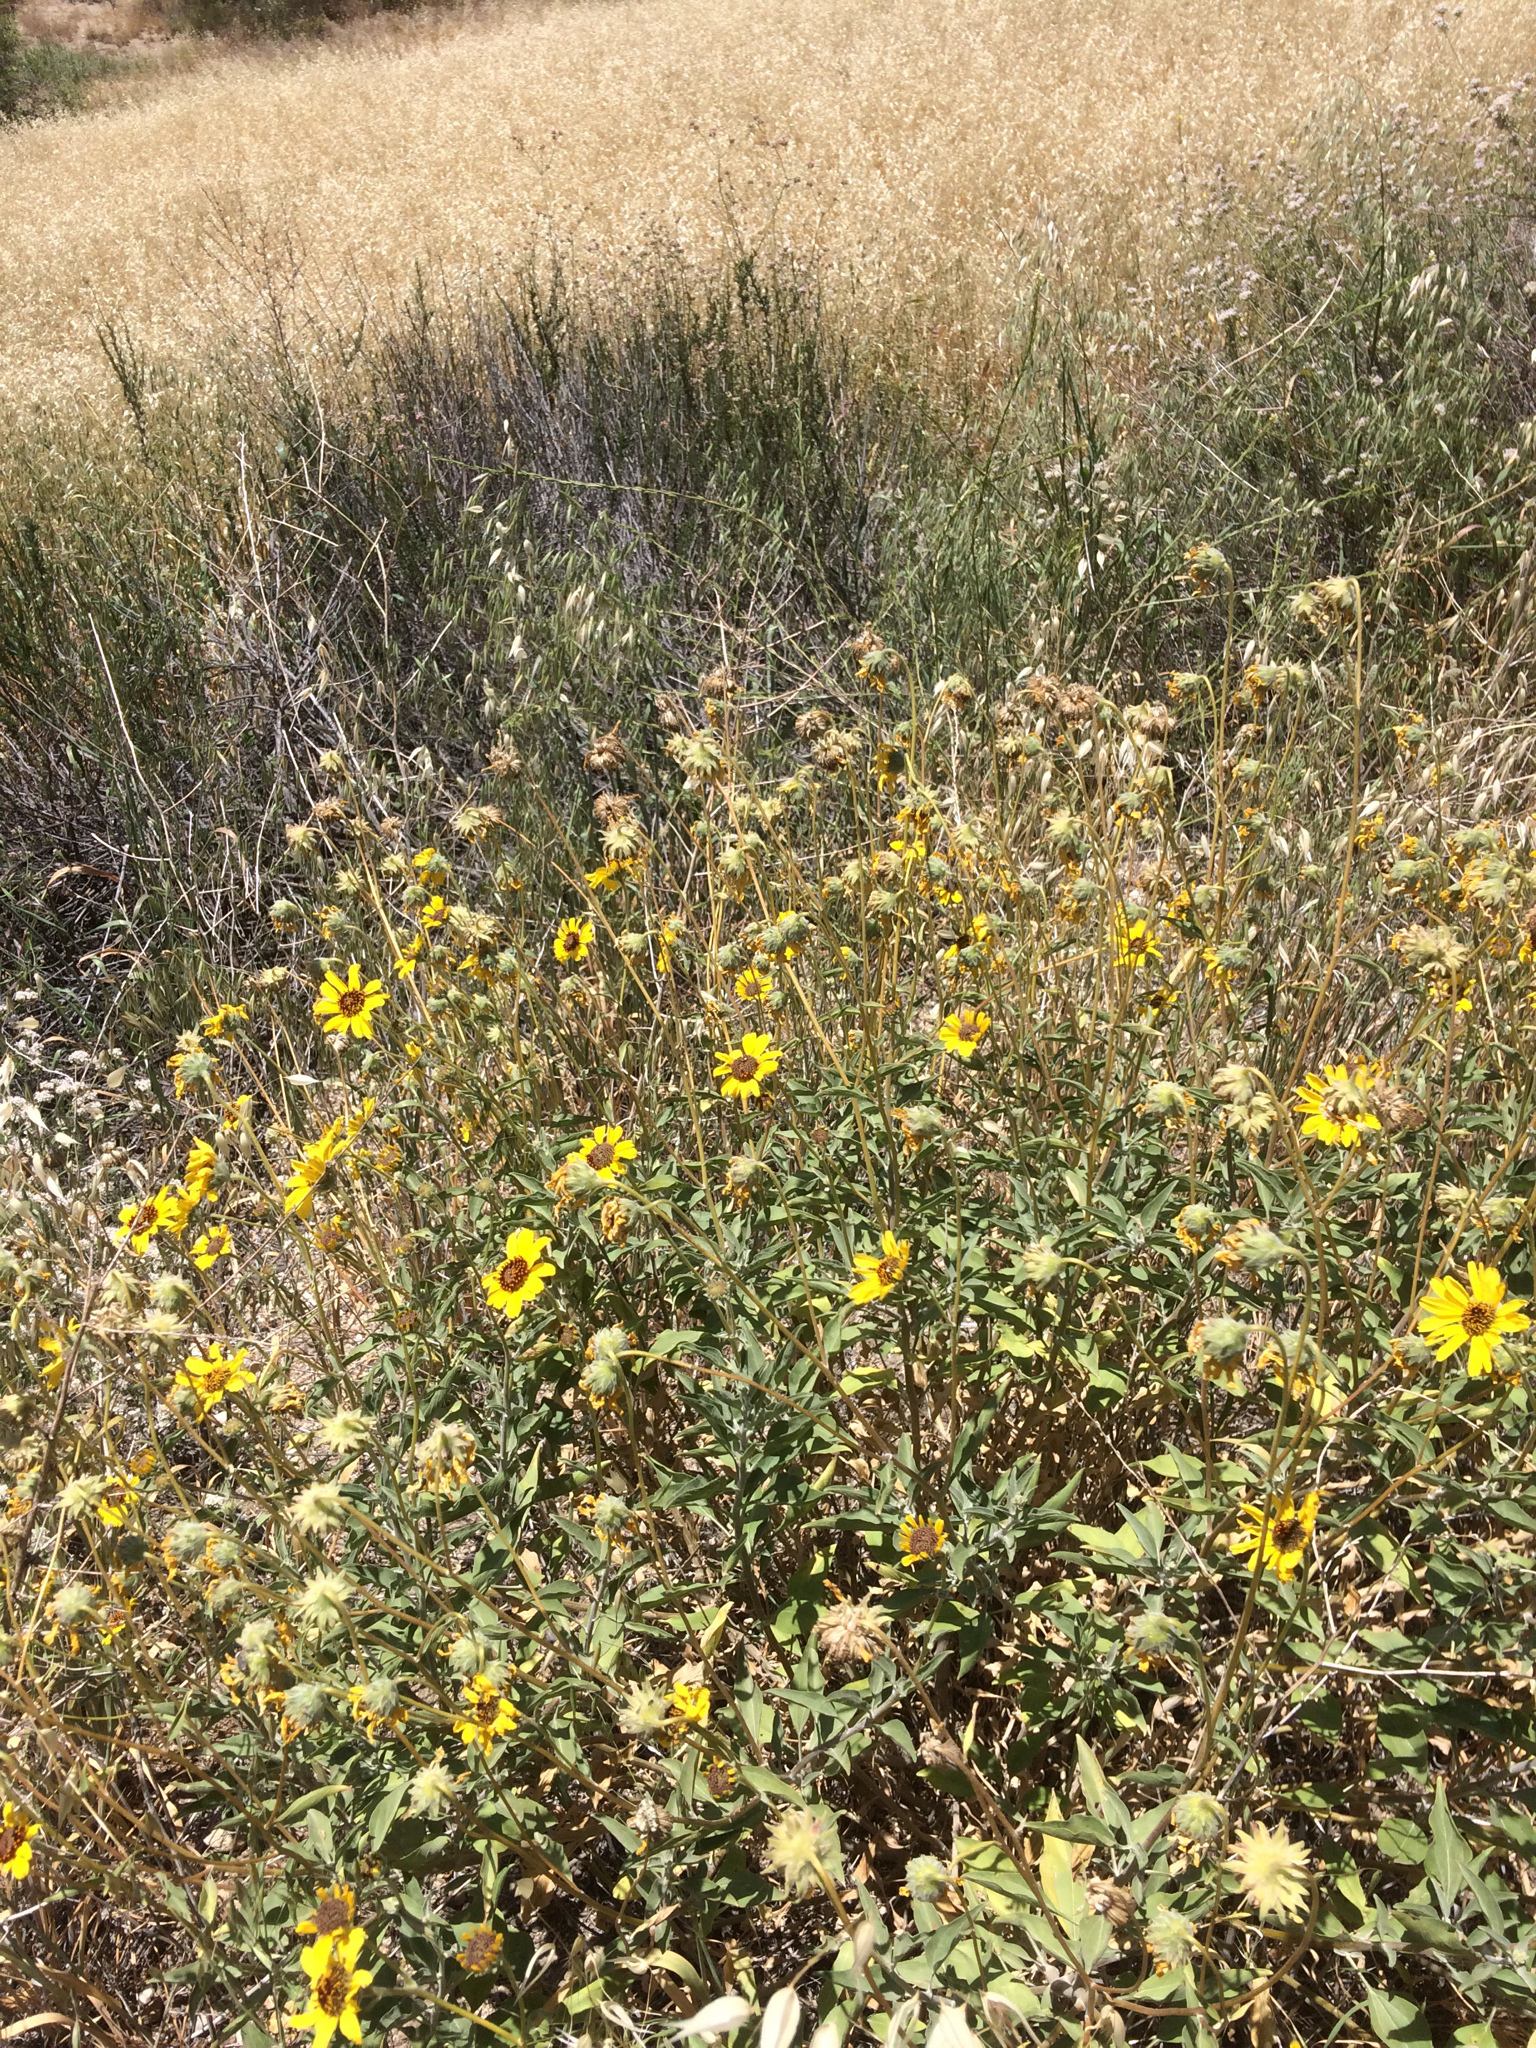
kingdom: Plantae
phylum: Tracheophyta
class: Magnoliopsida
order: Asterales
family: Asteraceae
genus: Encelia
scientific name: Encelia californica
